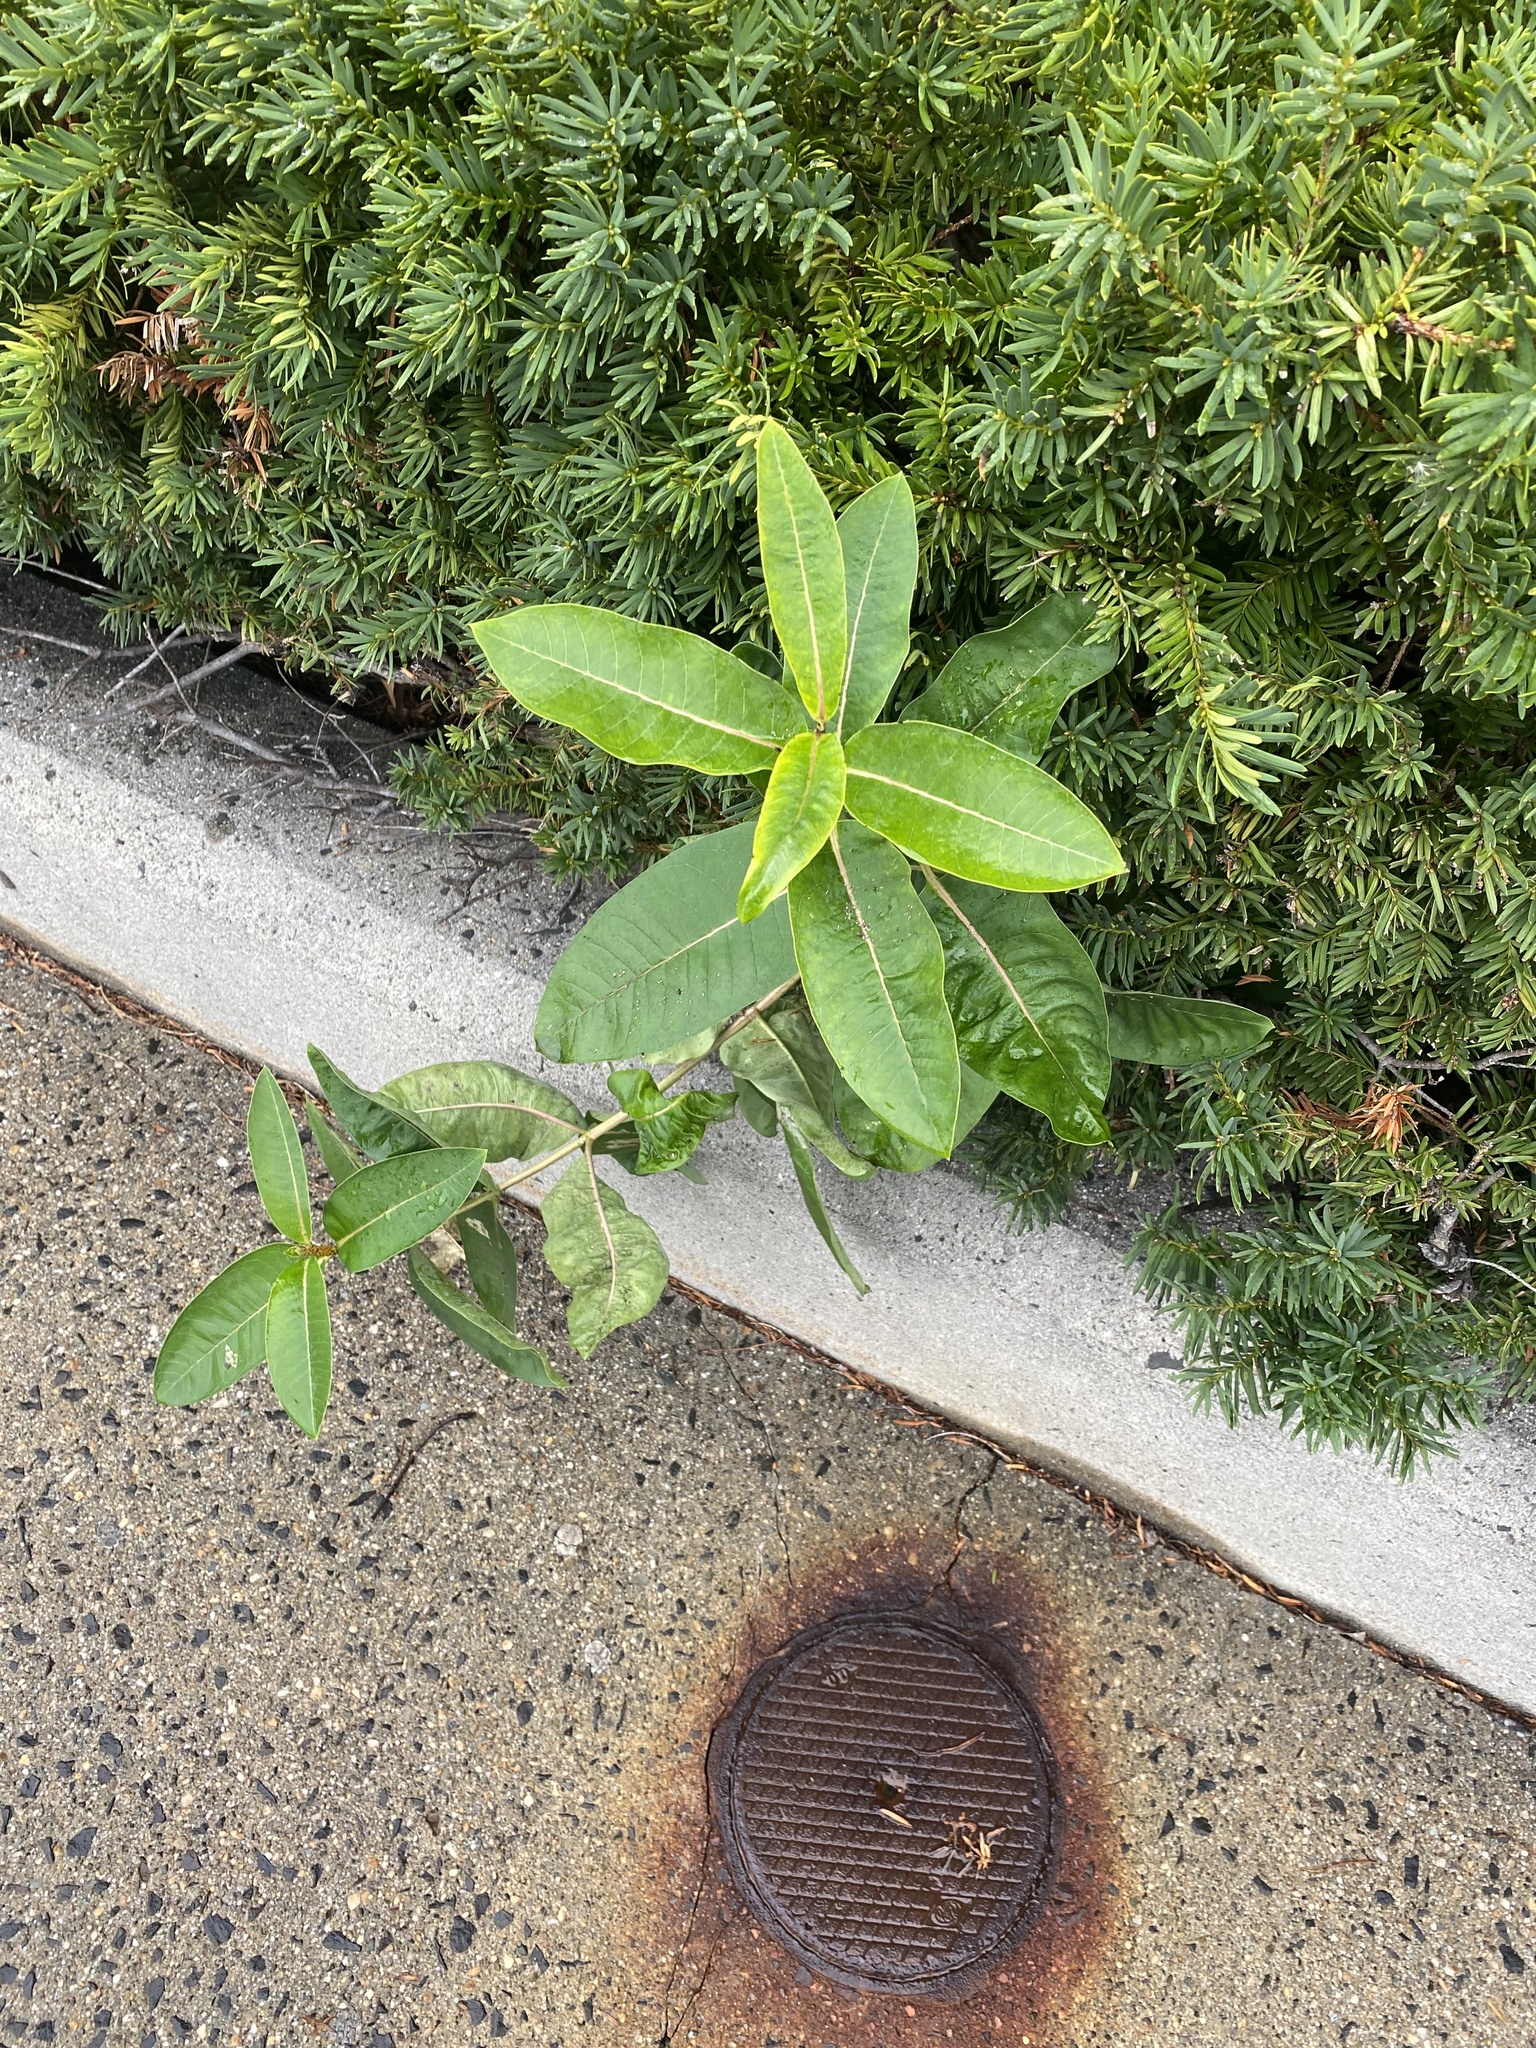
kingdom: Plantae
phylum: Tracheophyta
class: Magnoliopsida
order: Gentianales
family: Apocynaceae
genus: Asclepias
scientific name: Asclepias syriaca
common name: Common milkweed
